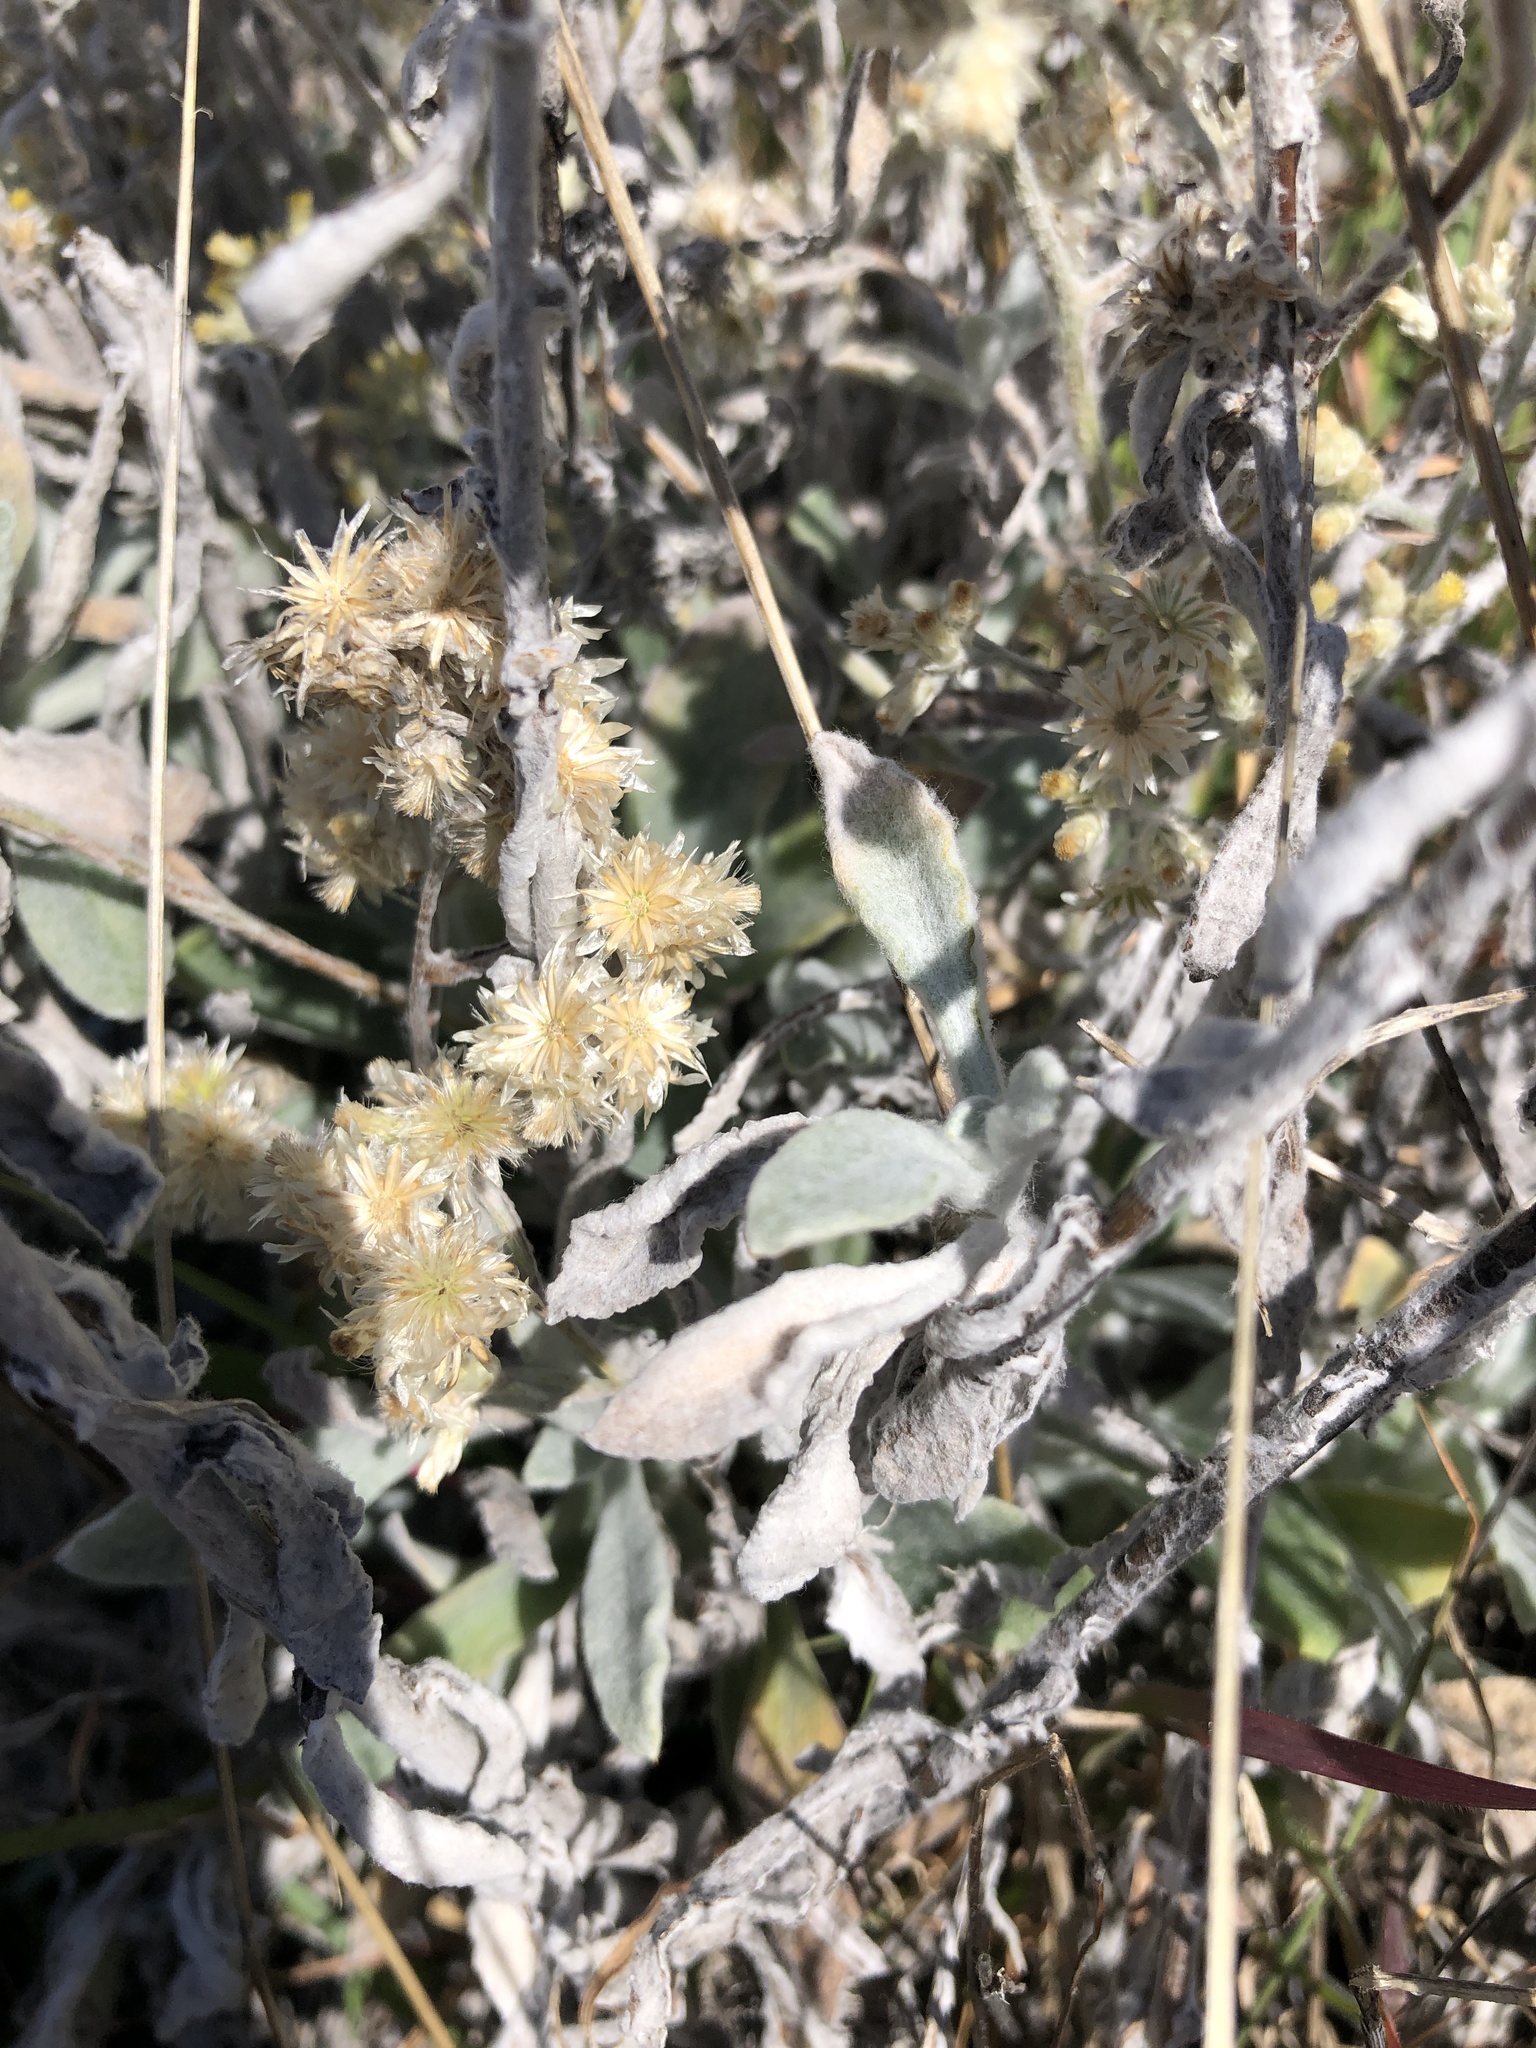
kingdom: Plantae
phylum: Tracheophyta
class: Magnoliopsida
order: Asterales
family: Asteraceae
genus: Pseudognaphalium
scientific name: Pseudognaphalium microcephalum
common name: San diego rabbit-tobacco
